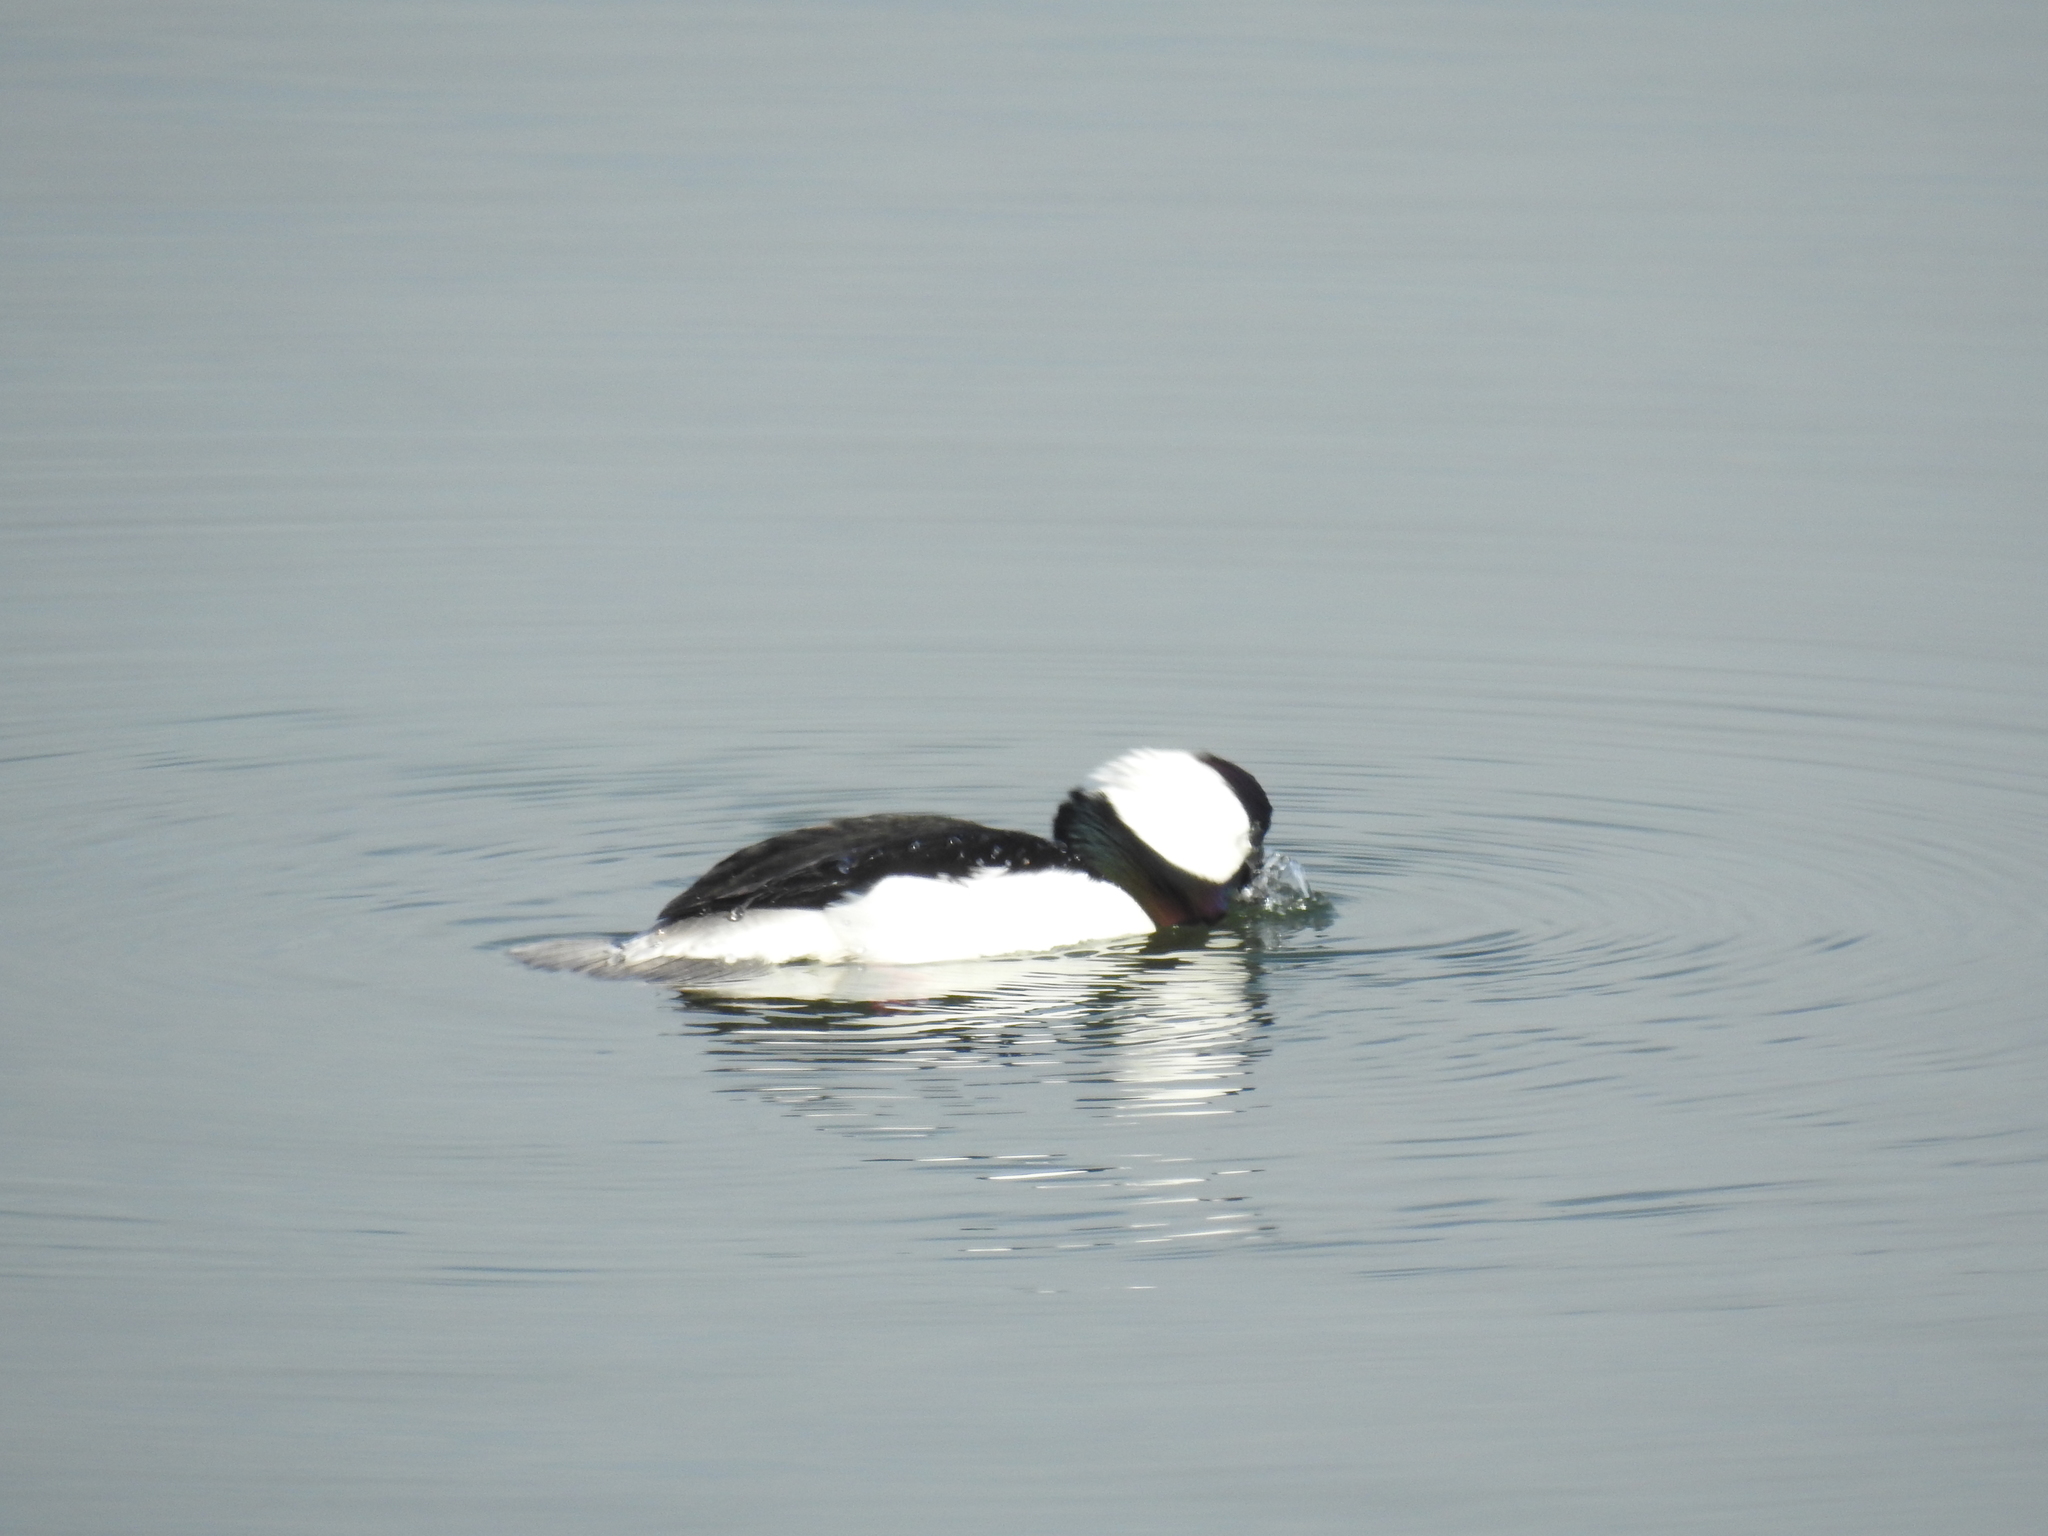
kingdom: Animalia
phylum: Chordata
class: Aves
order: Anseriformes
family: Anatidae
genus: Bucephala
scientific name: Bucephala albeola
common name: Bufflehead
